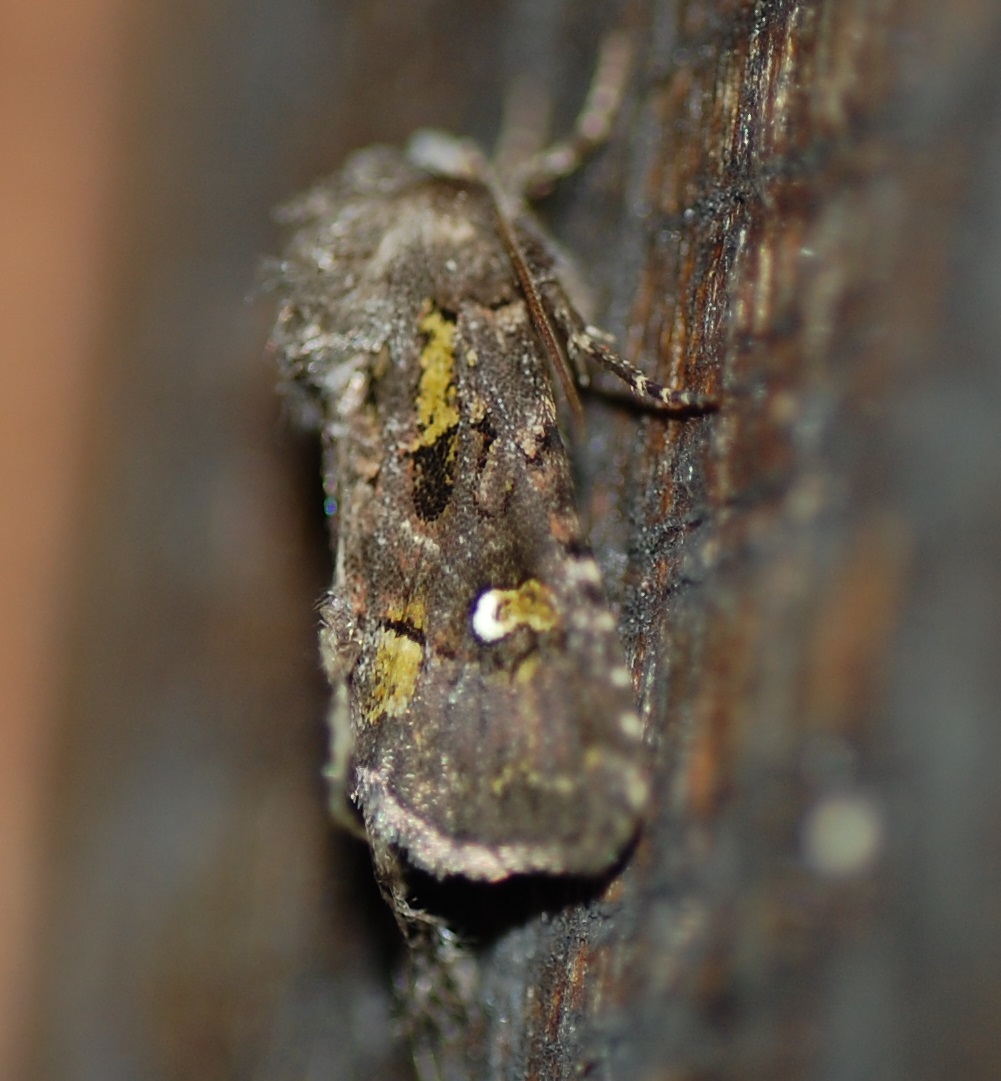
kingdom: Animalia
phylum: Arthropoda
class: Insecta
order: Lepidoptera
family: Noctuidae
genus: Lacinipolia
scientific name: Lacinipolia renigera
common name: Kidney-spotted minor
